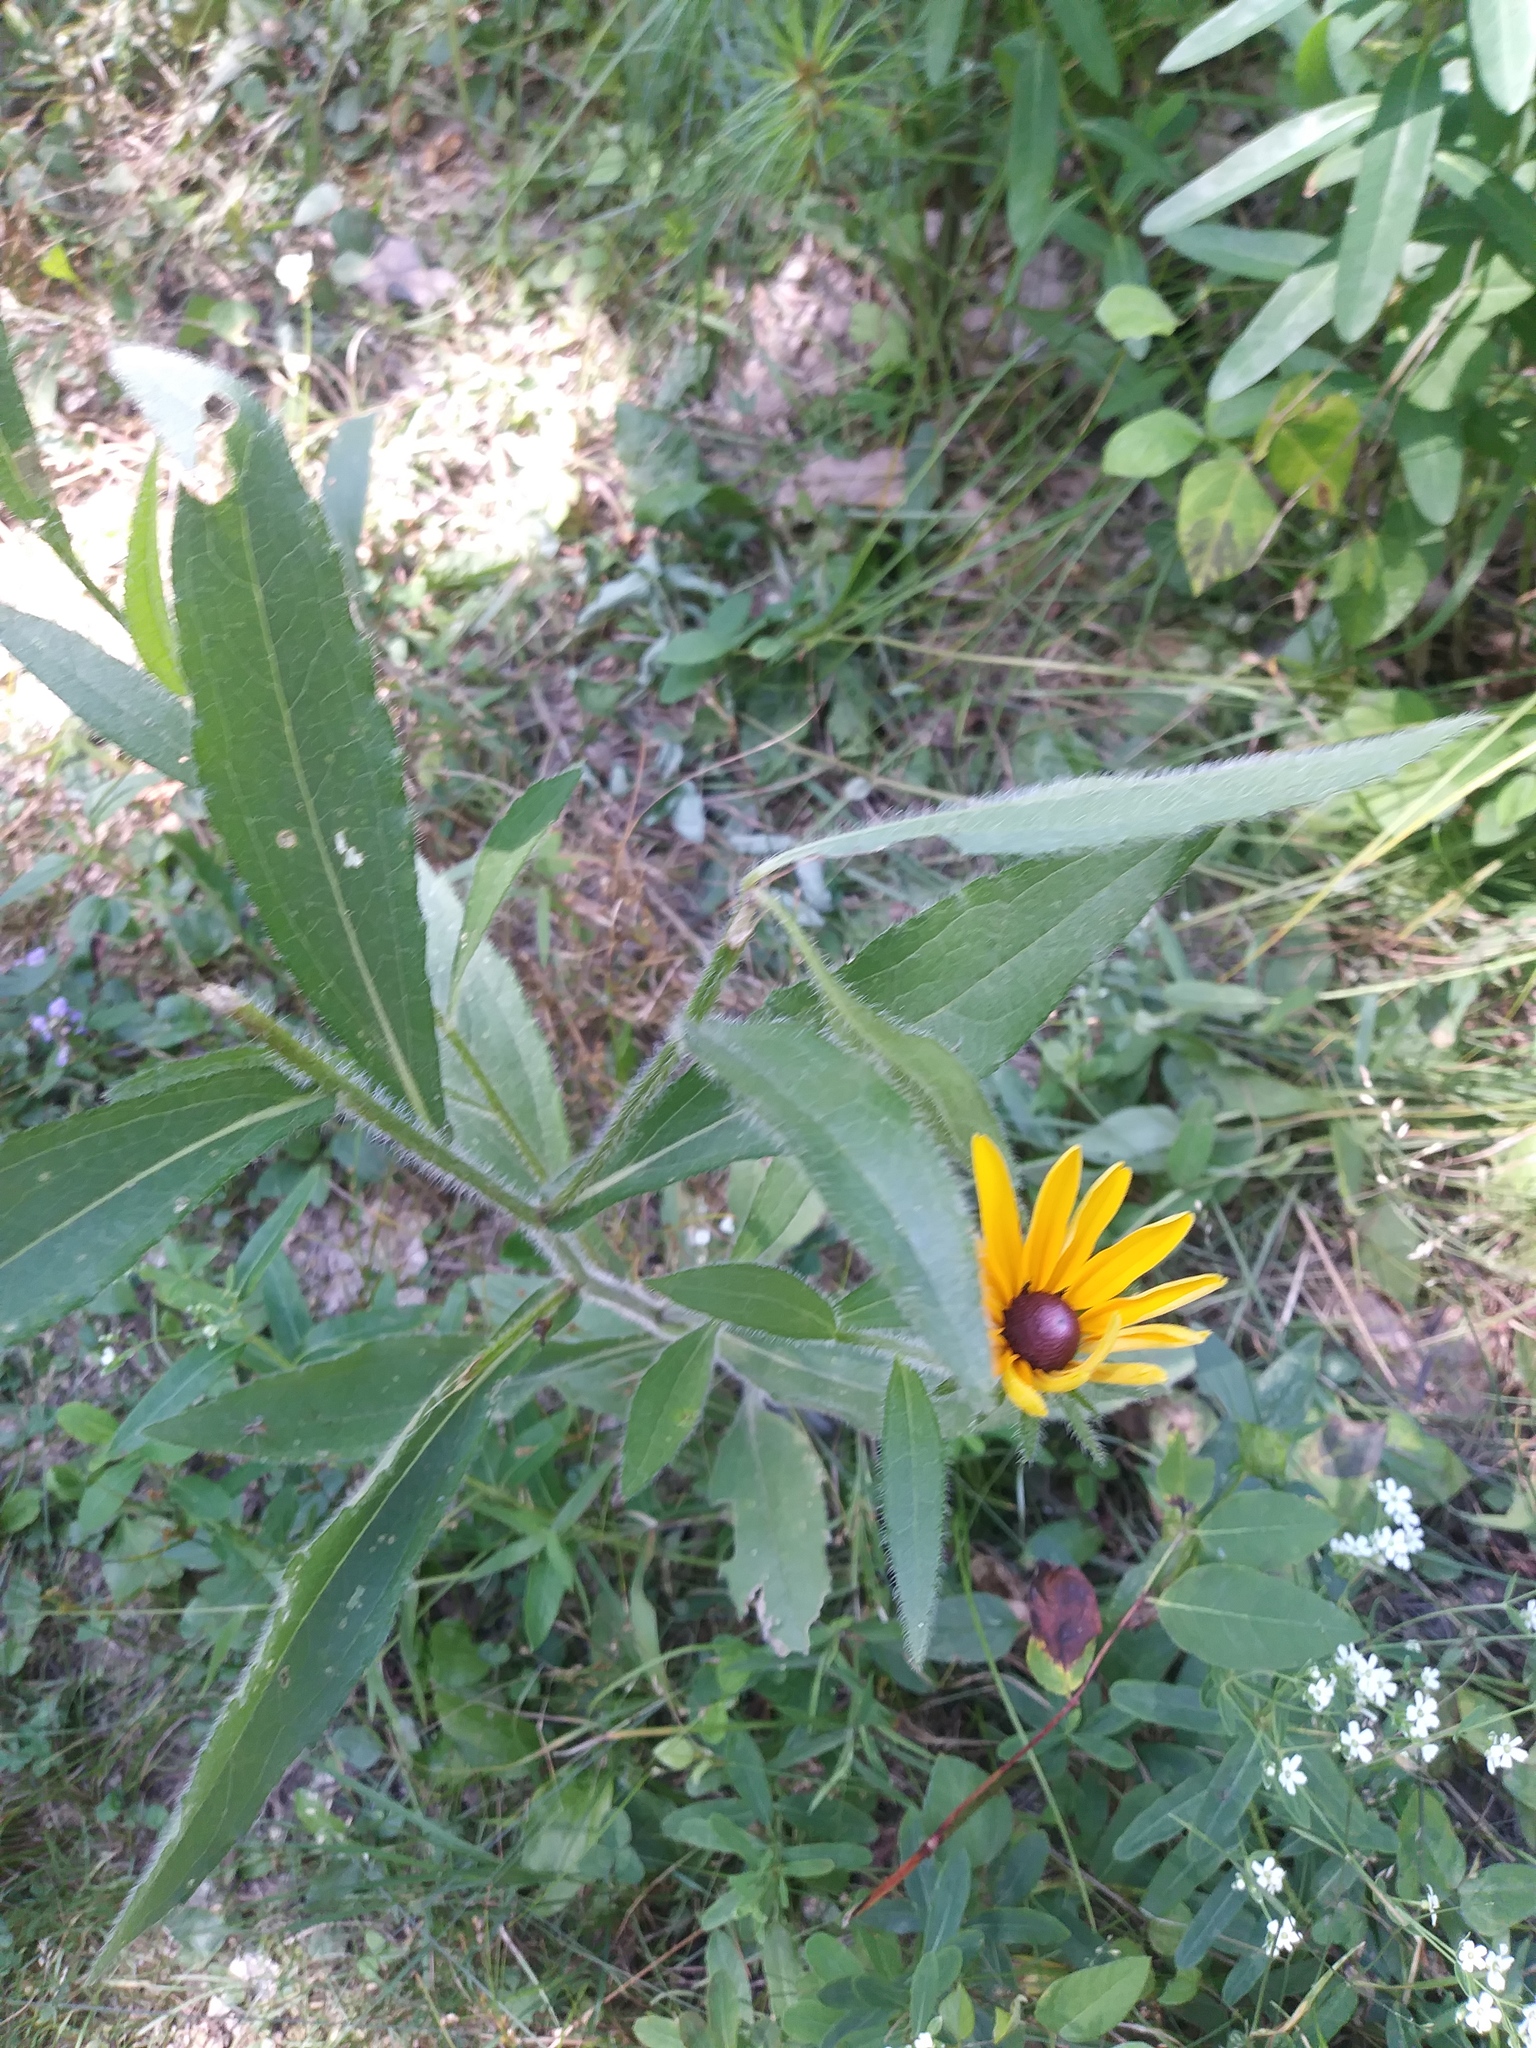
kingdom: Plantae
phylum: Tracheophyta
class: Magnoliopsida
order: Asterales
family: Asteraceae
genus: Rudbeckia
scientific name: Rudbeckia hirta
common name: Black-eyed-susan
